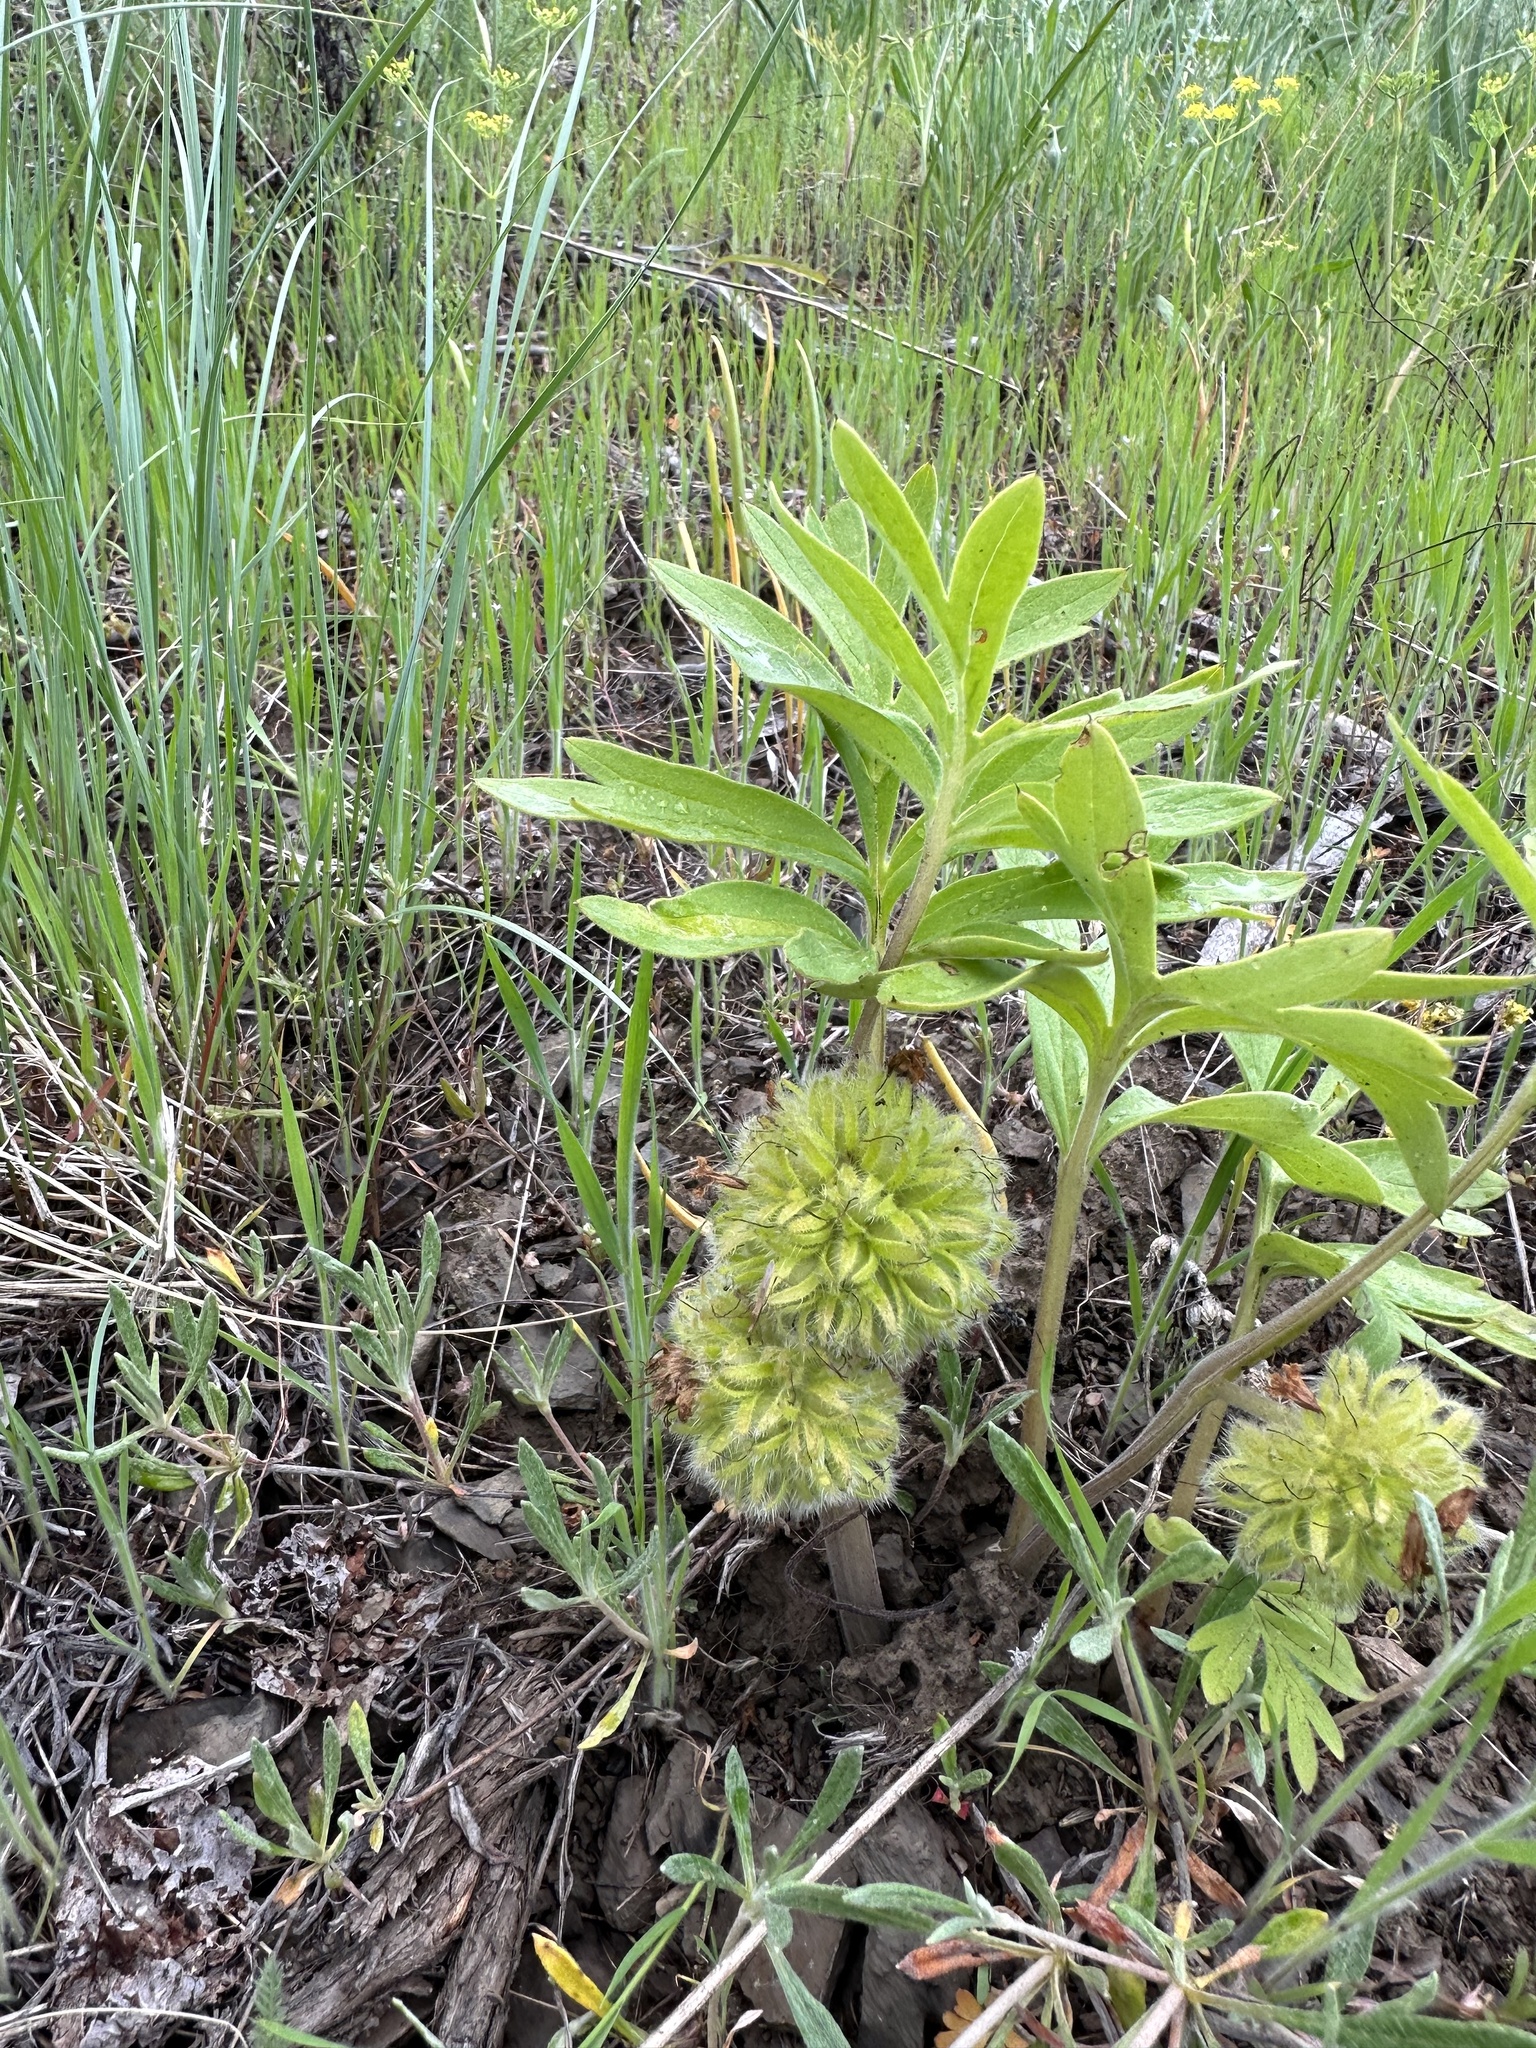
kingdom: Plantae
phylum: Tracheophyta
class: Magnoliopsida
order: Boraginales
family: Hydrophyllaceae
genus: Hydrophyllum
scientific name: Hydrophyllum capitatum
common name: Woollen-breeches
